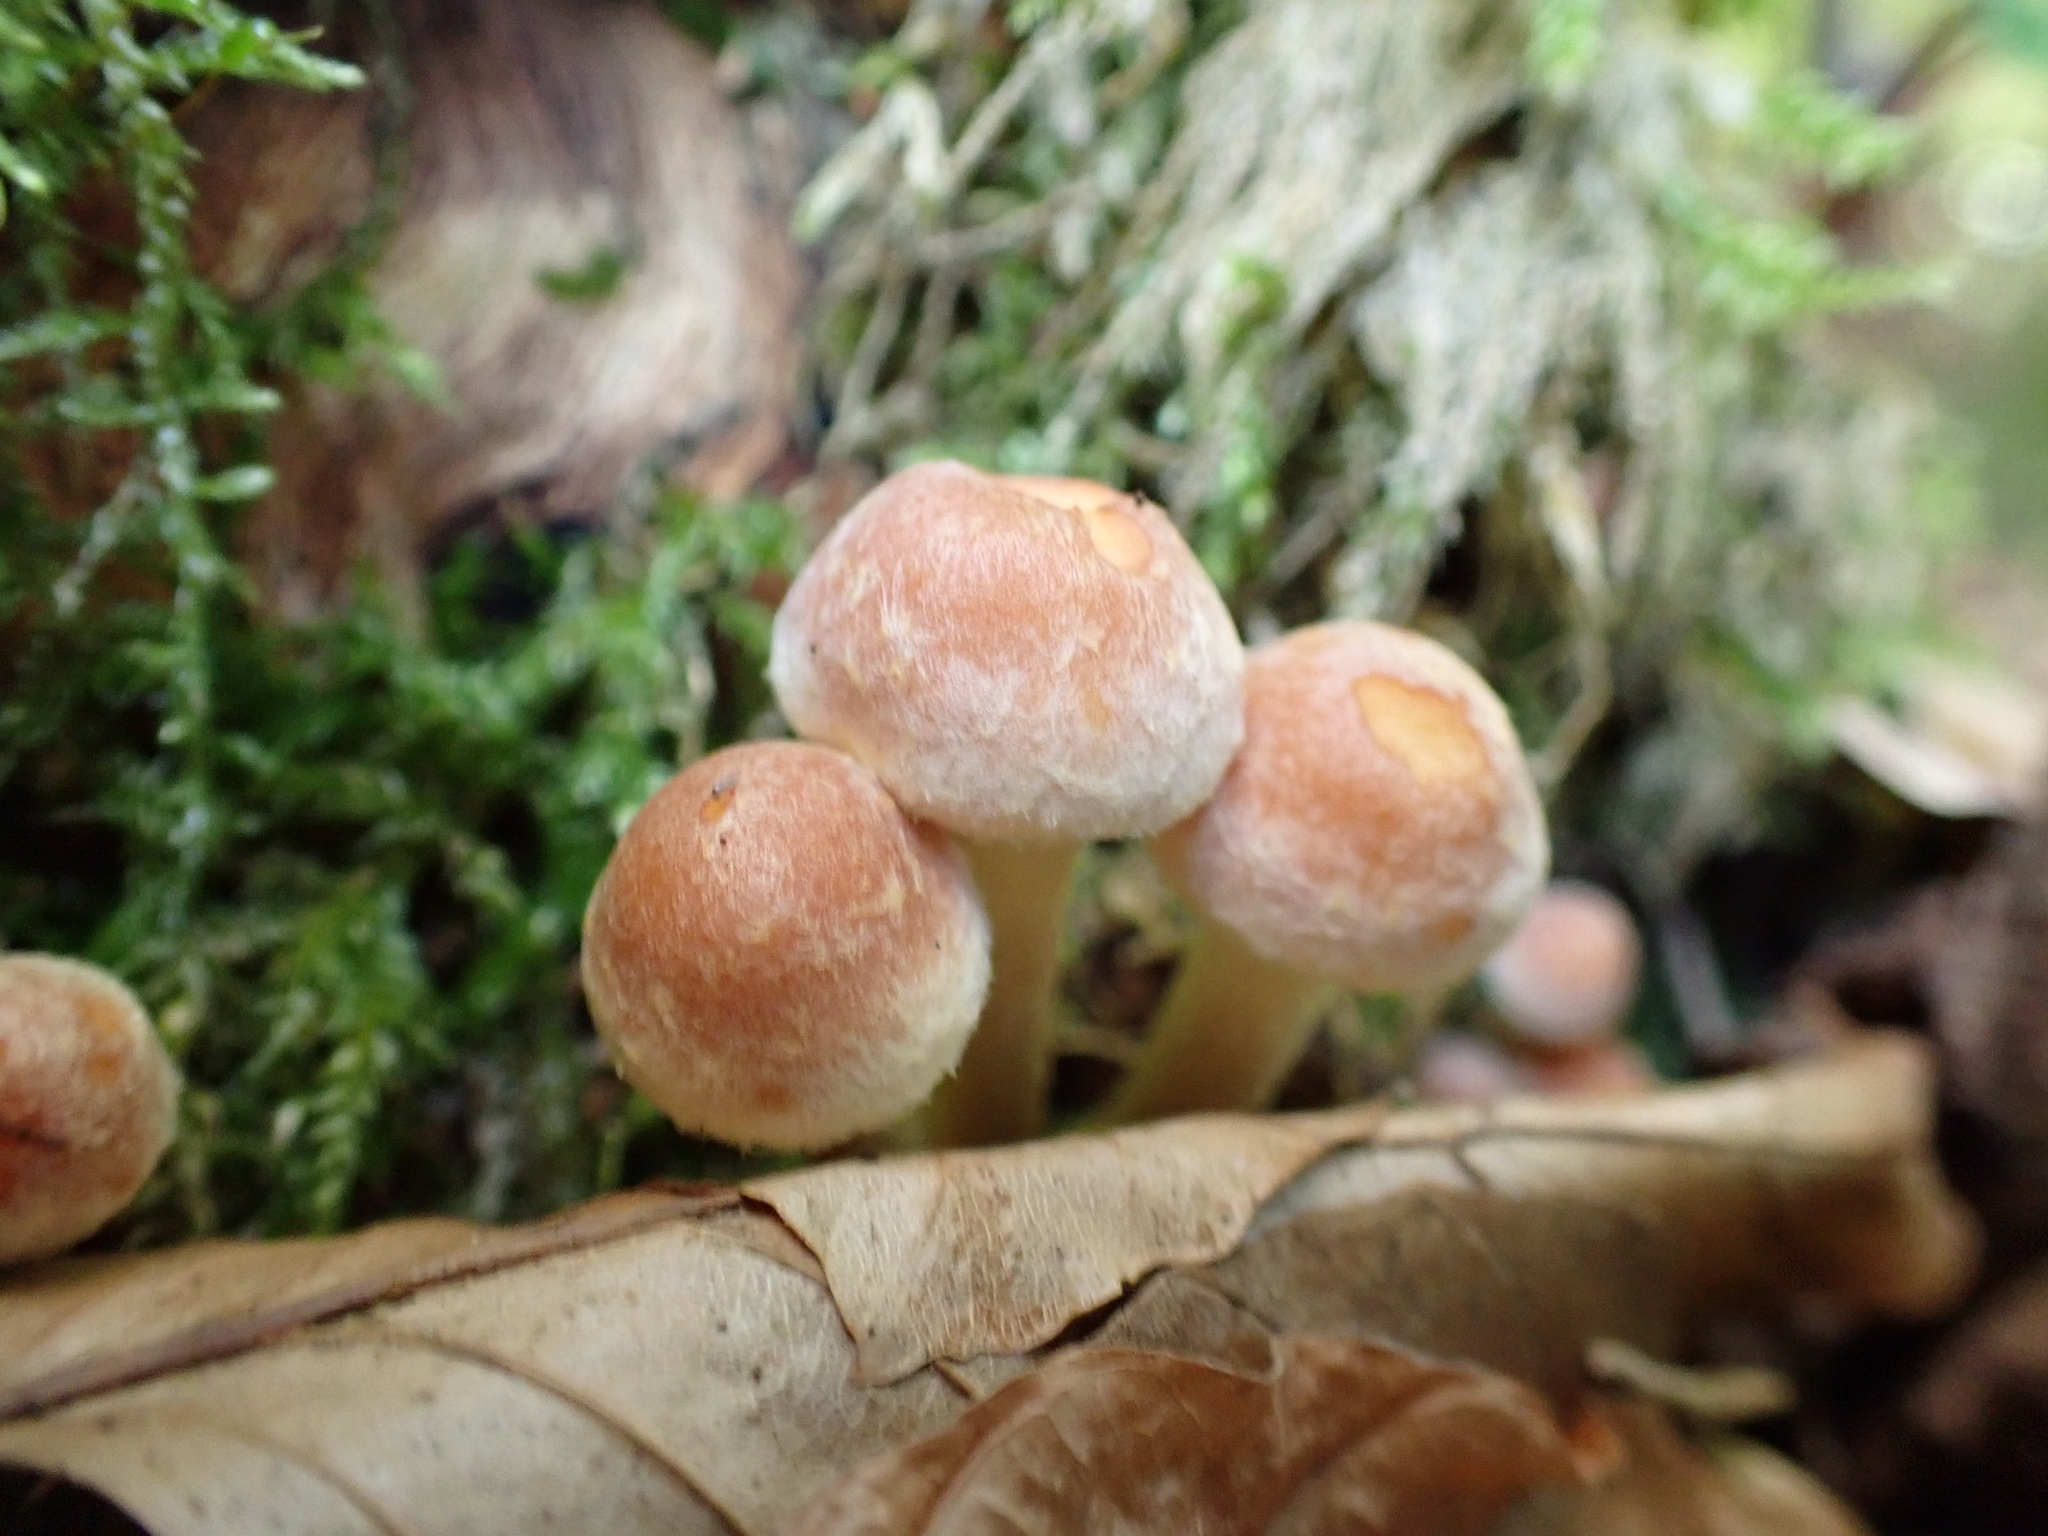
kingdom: Fungi
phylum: Basidiomycota
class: Agaricomycetes
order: Agaricales
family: Strophariaceae
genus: Hypholoma
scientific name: Hypholoma lateritium
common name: Brick caps
